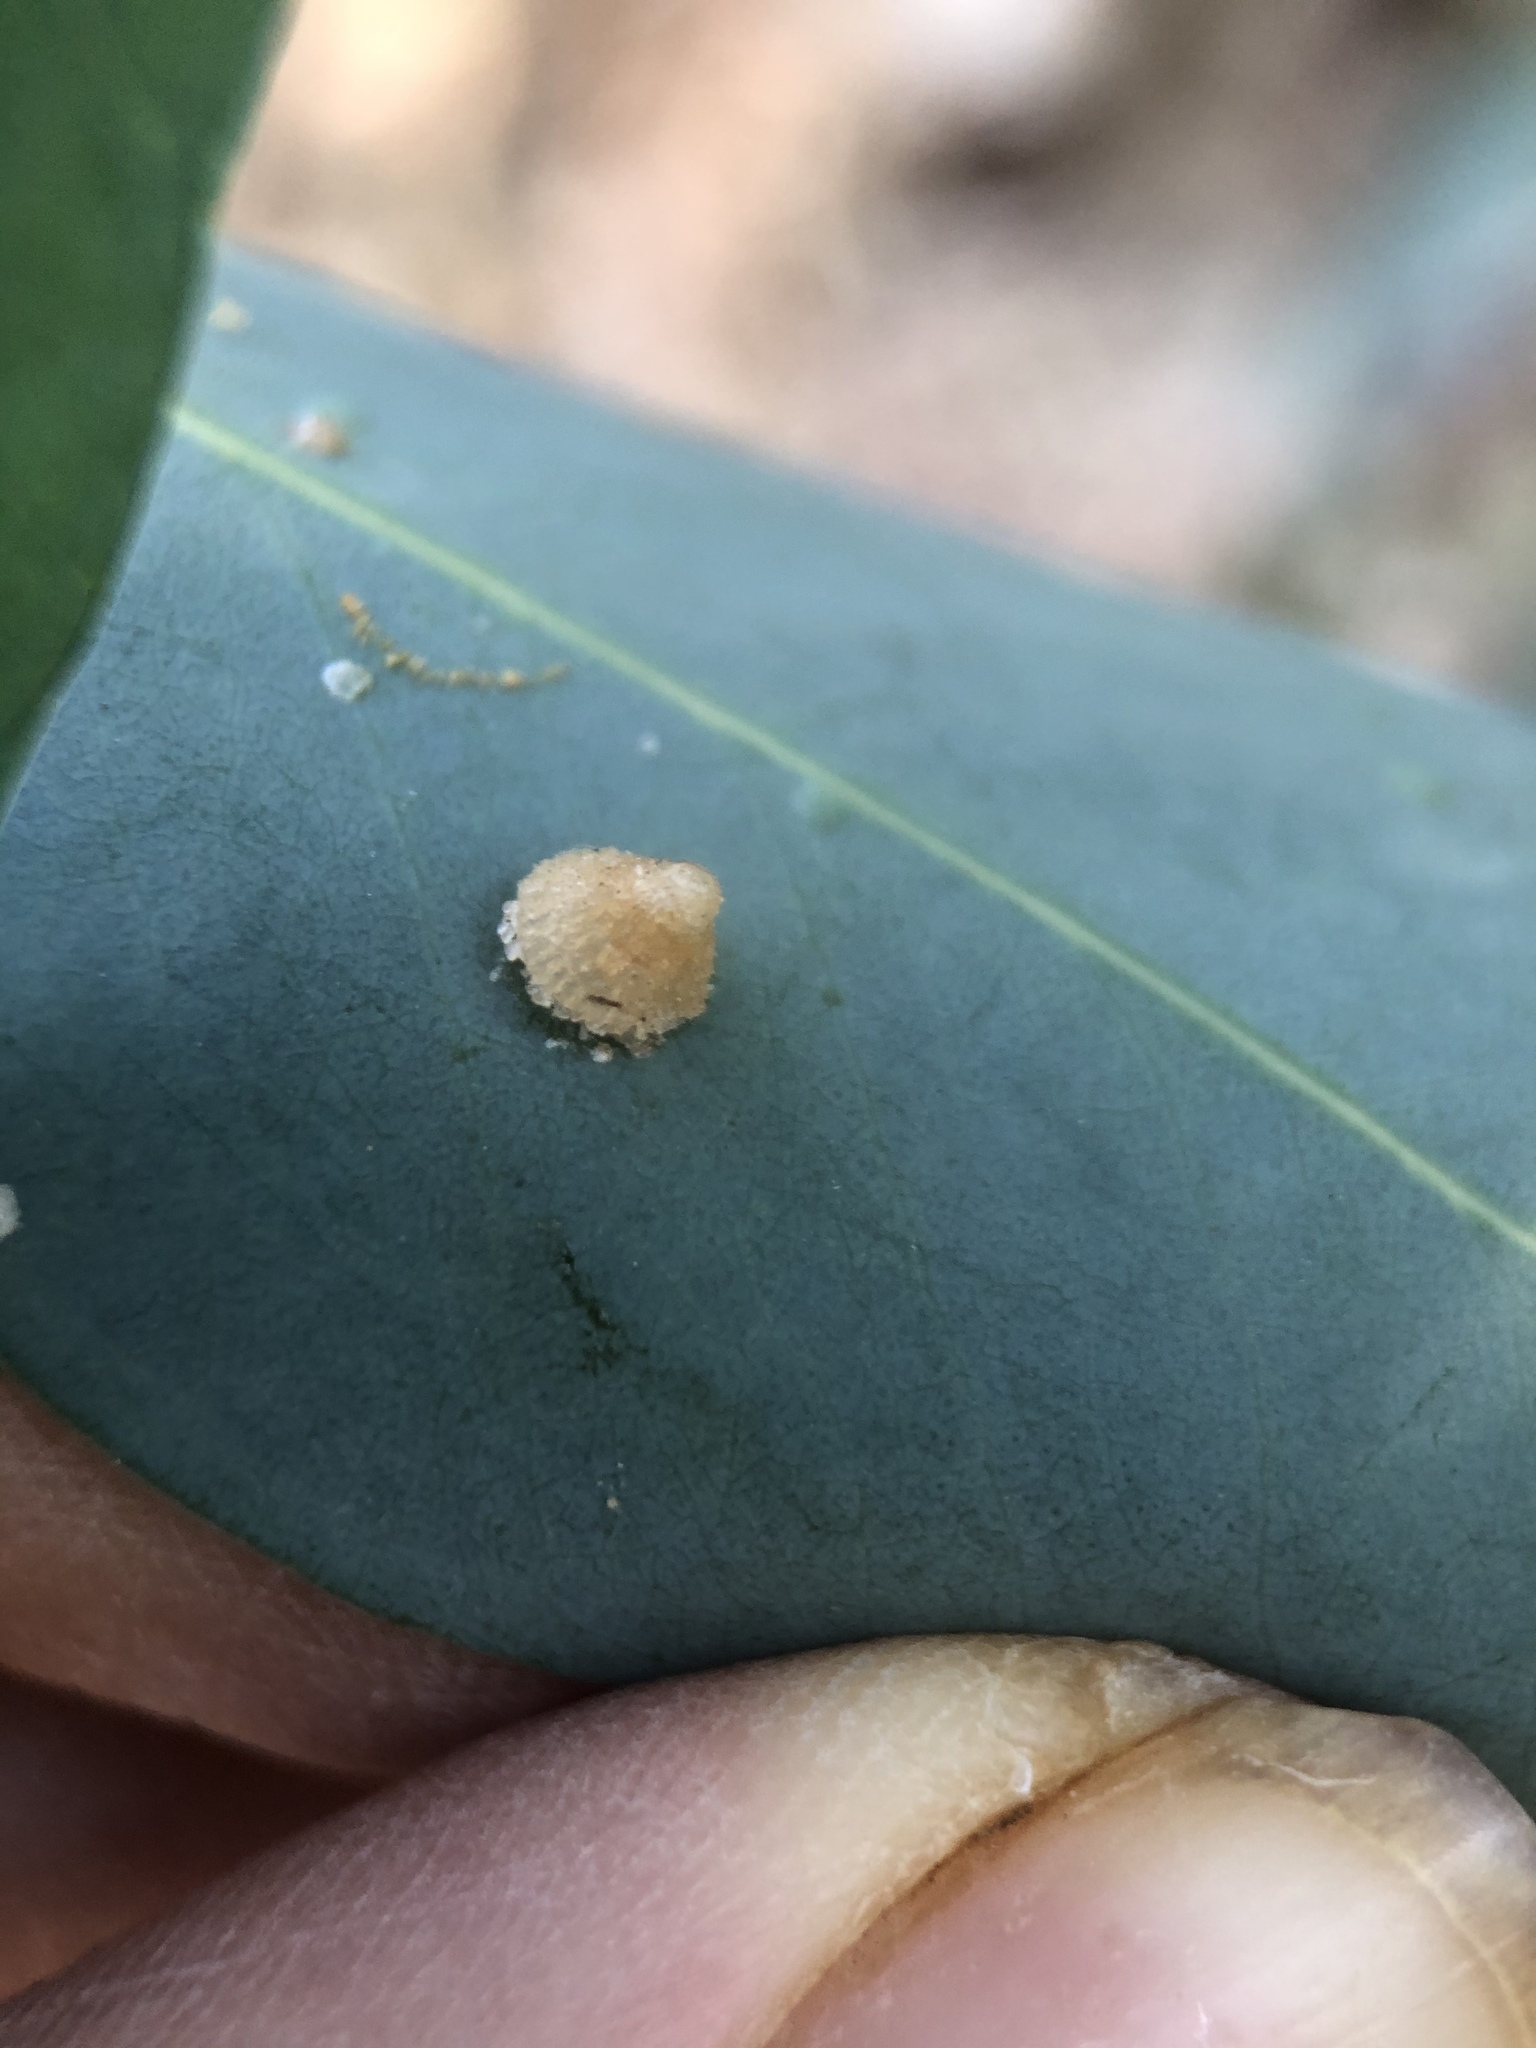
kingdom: Animalia
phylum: Arthropoda
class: Insecta
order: Hemiptera
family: Aphalaridae
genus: Glycaspis
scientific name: Glycaspis brimblecombei
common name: Red gum lerp psyllid
